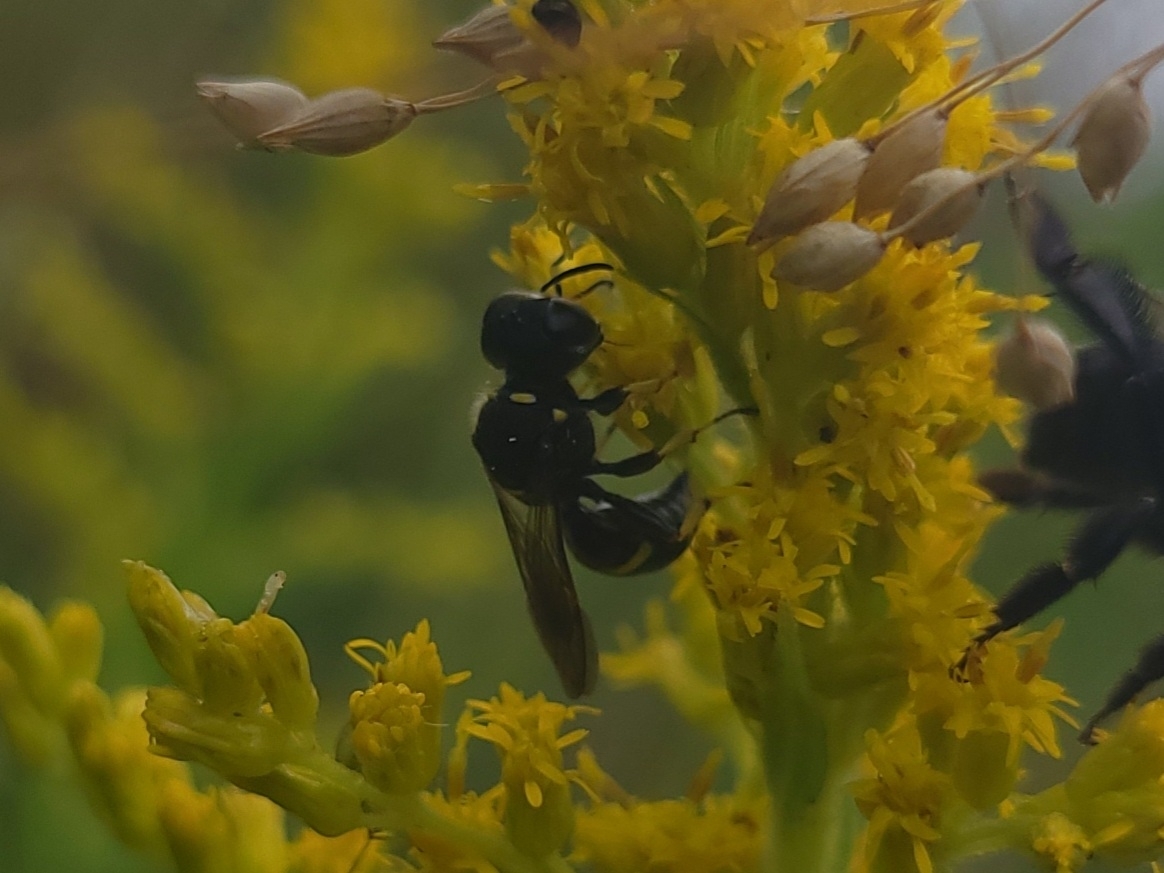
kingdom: Animalia
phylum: Arthropoda
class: Insecta
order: Hymenoptera
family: Crabronidae
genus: Ectemnius
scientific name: Ectemnius continuus
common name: Common ectemnius
